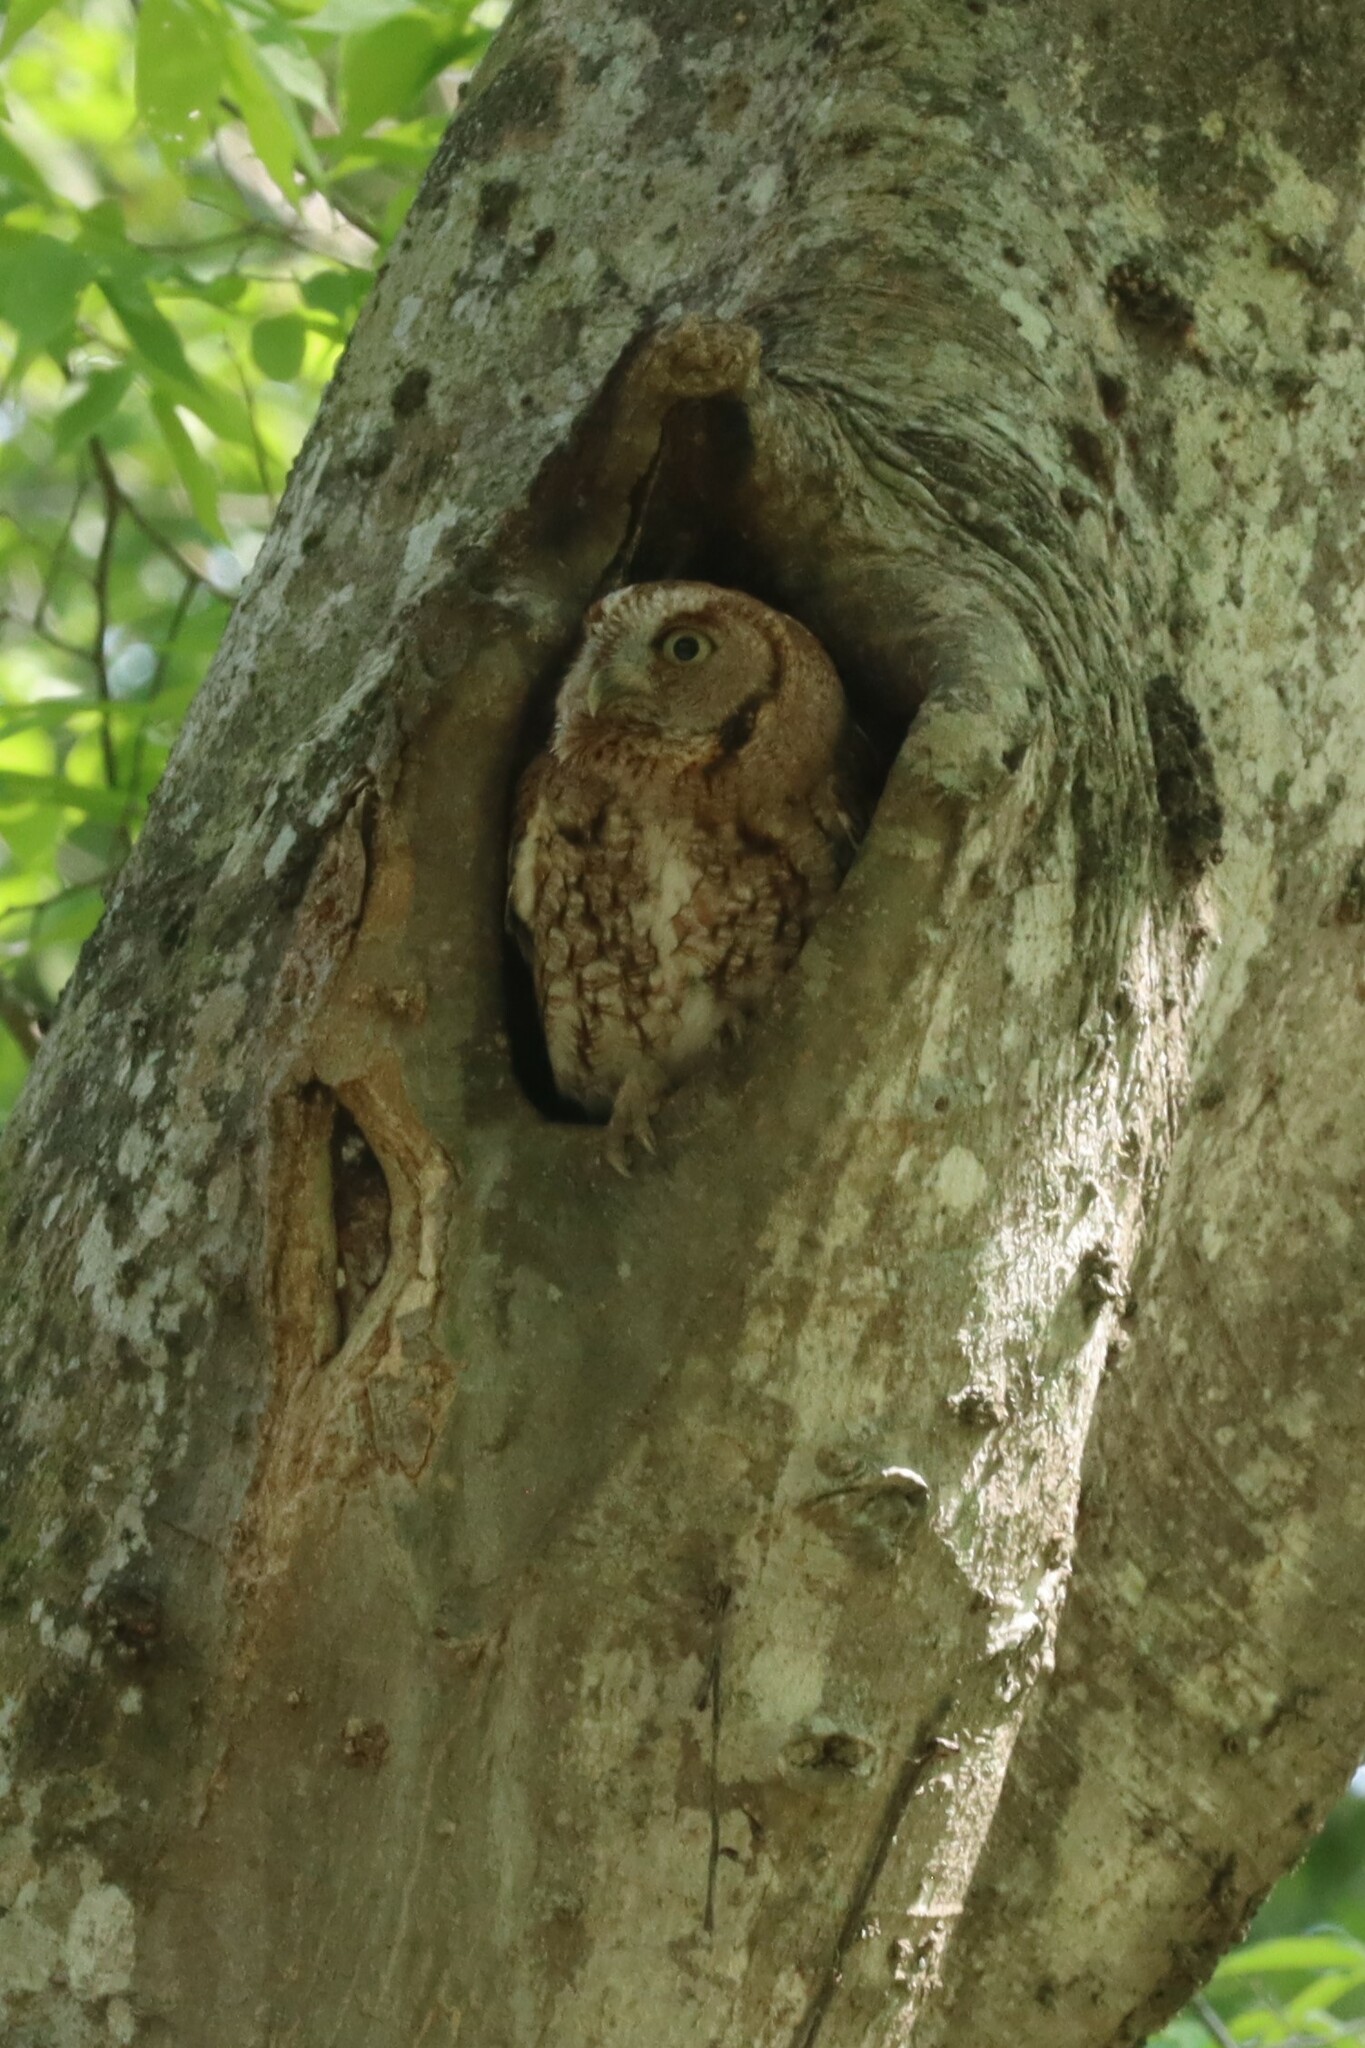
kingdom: Animalia
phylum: Chordata
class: Aves
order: Strigiformes
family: Strigidae
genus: Megascops
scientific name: Megascops asio
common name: Eastern screech-owl
